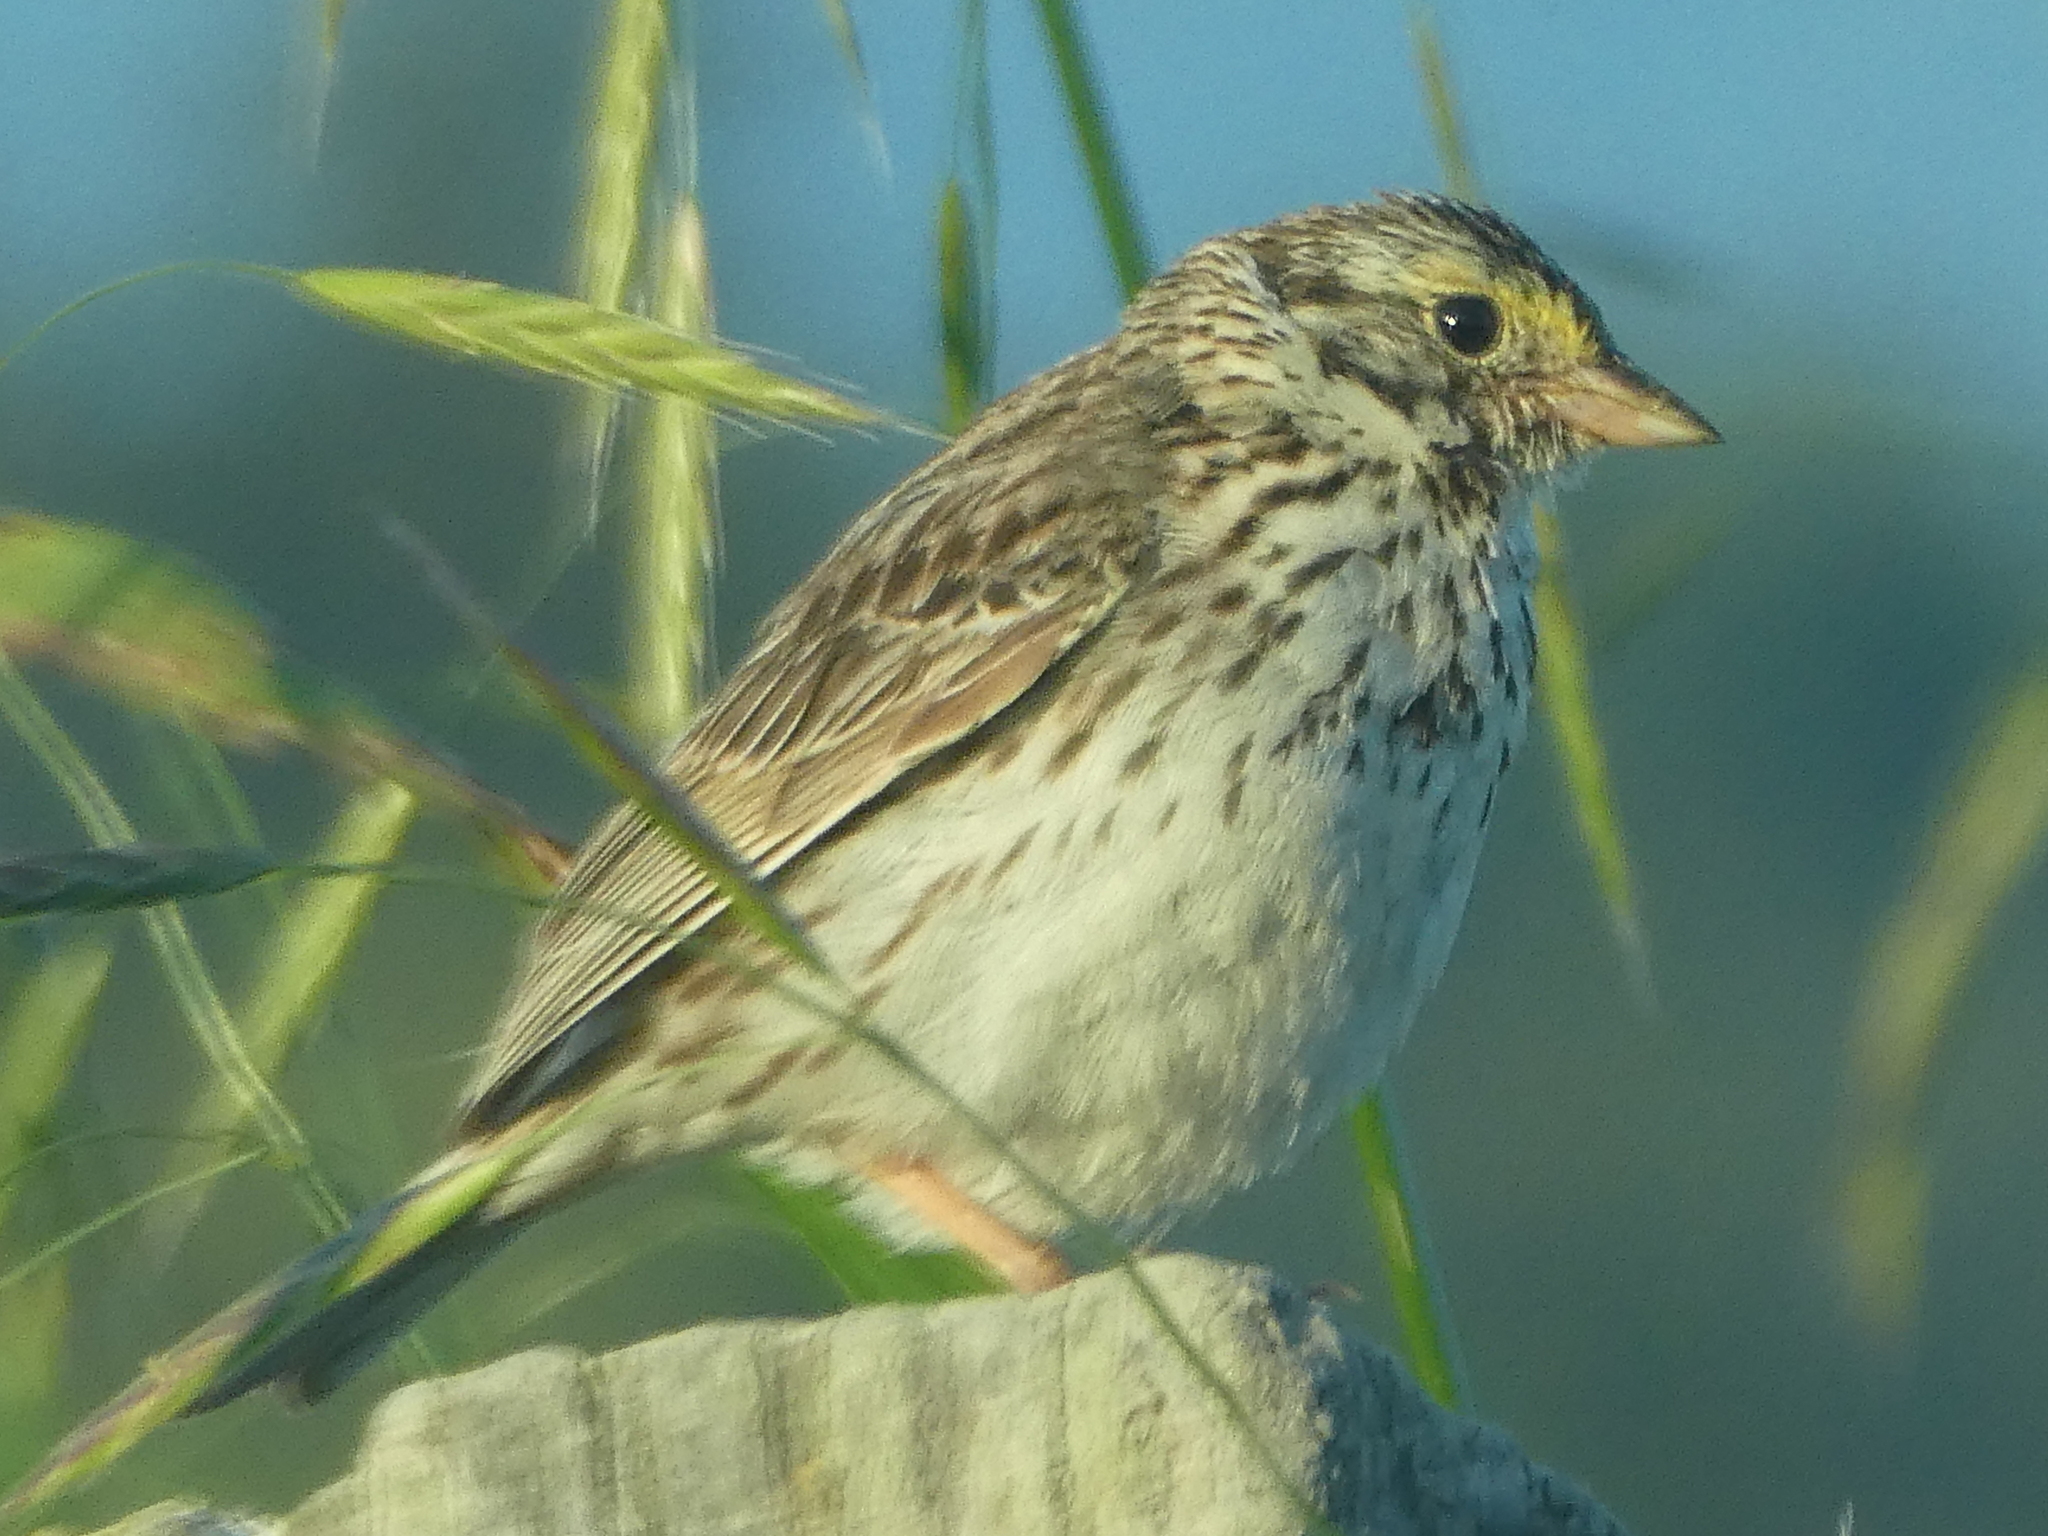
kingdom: Animalia
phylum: Chordata
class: Aves
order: Passeriformes
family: Passerellidae
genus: Passerculus
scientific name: Passerculus sandwichensis
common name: Savannah sparrow
